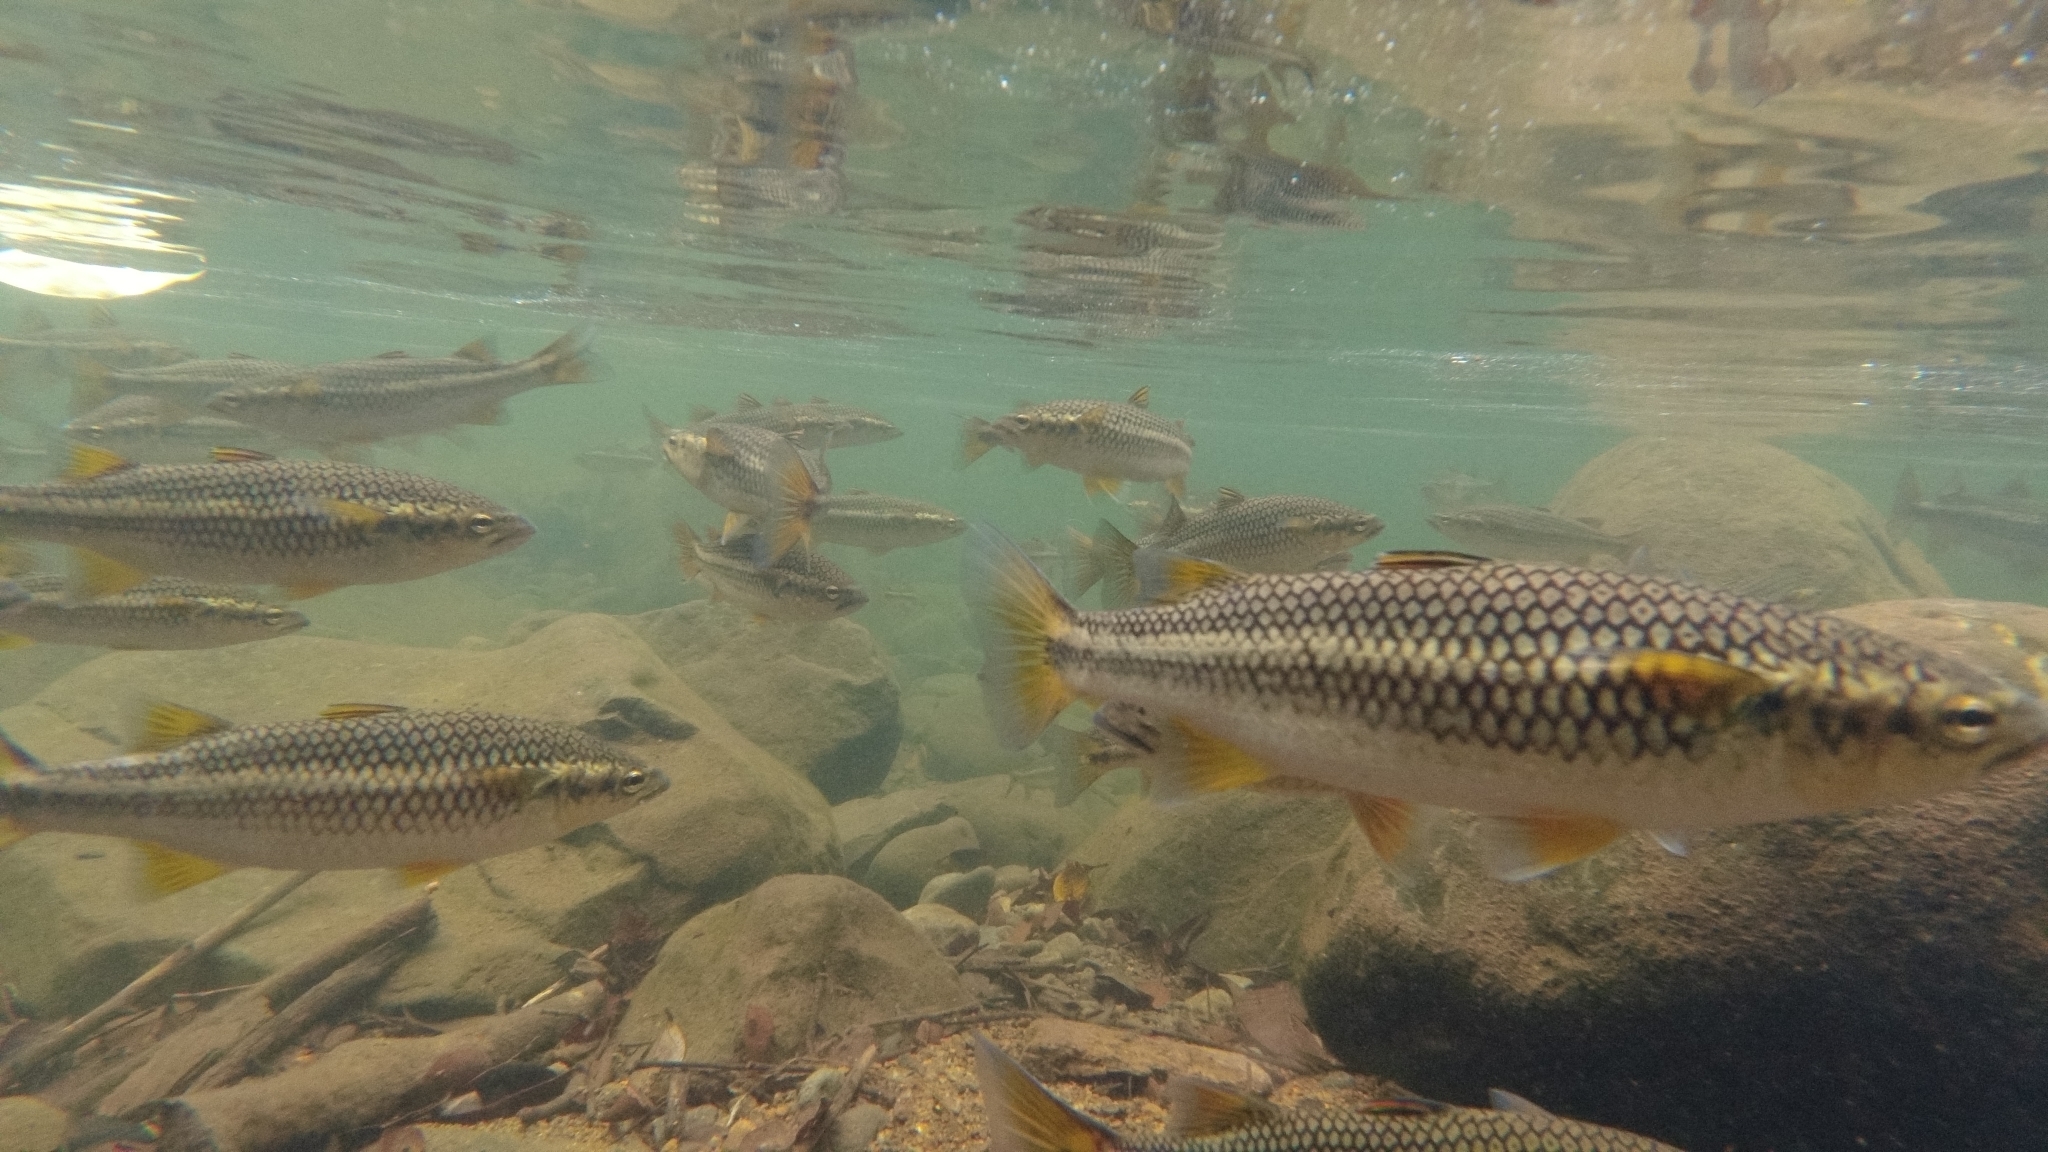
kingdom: Animalia
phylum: Chordata
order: Mugiliformes
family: Mugilidae
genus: Dajaus
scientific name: Dajaus monticola
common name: Mountain mullet
